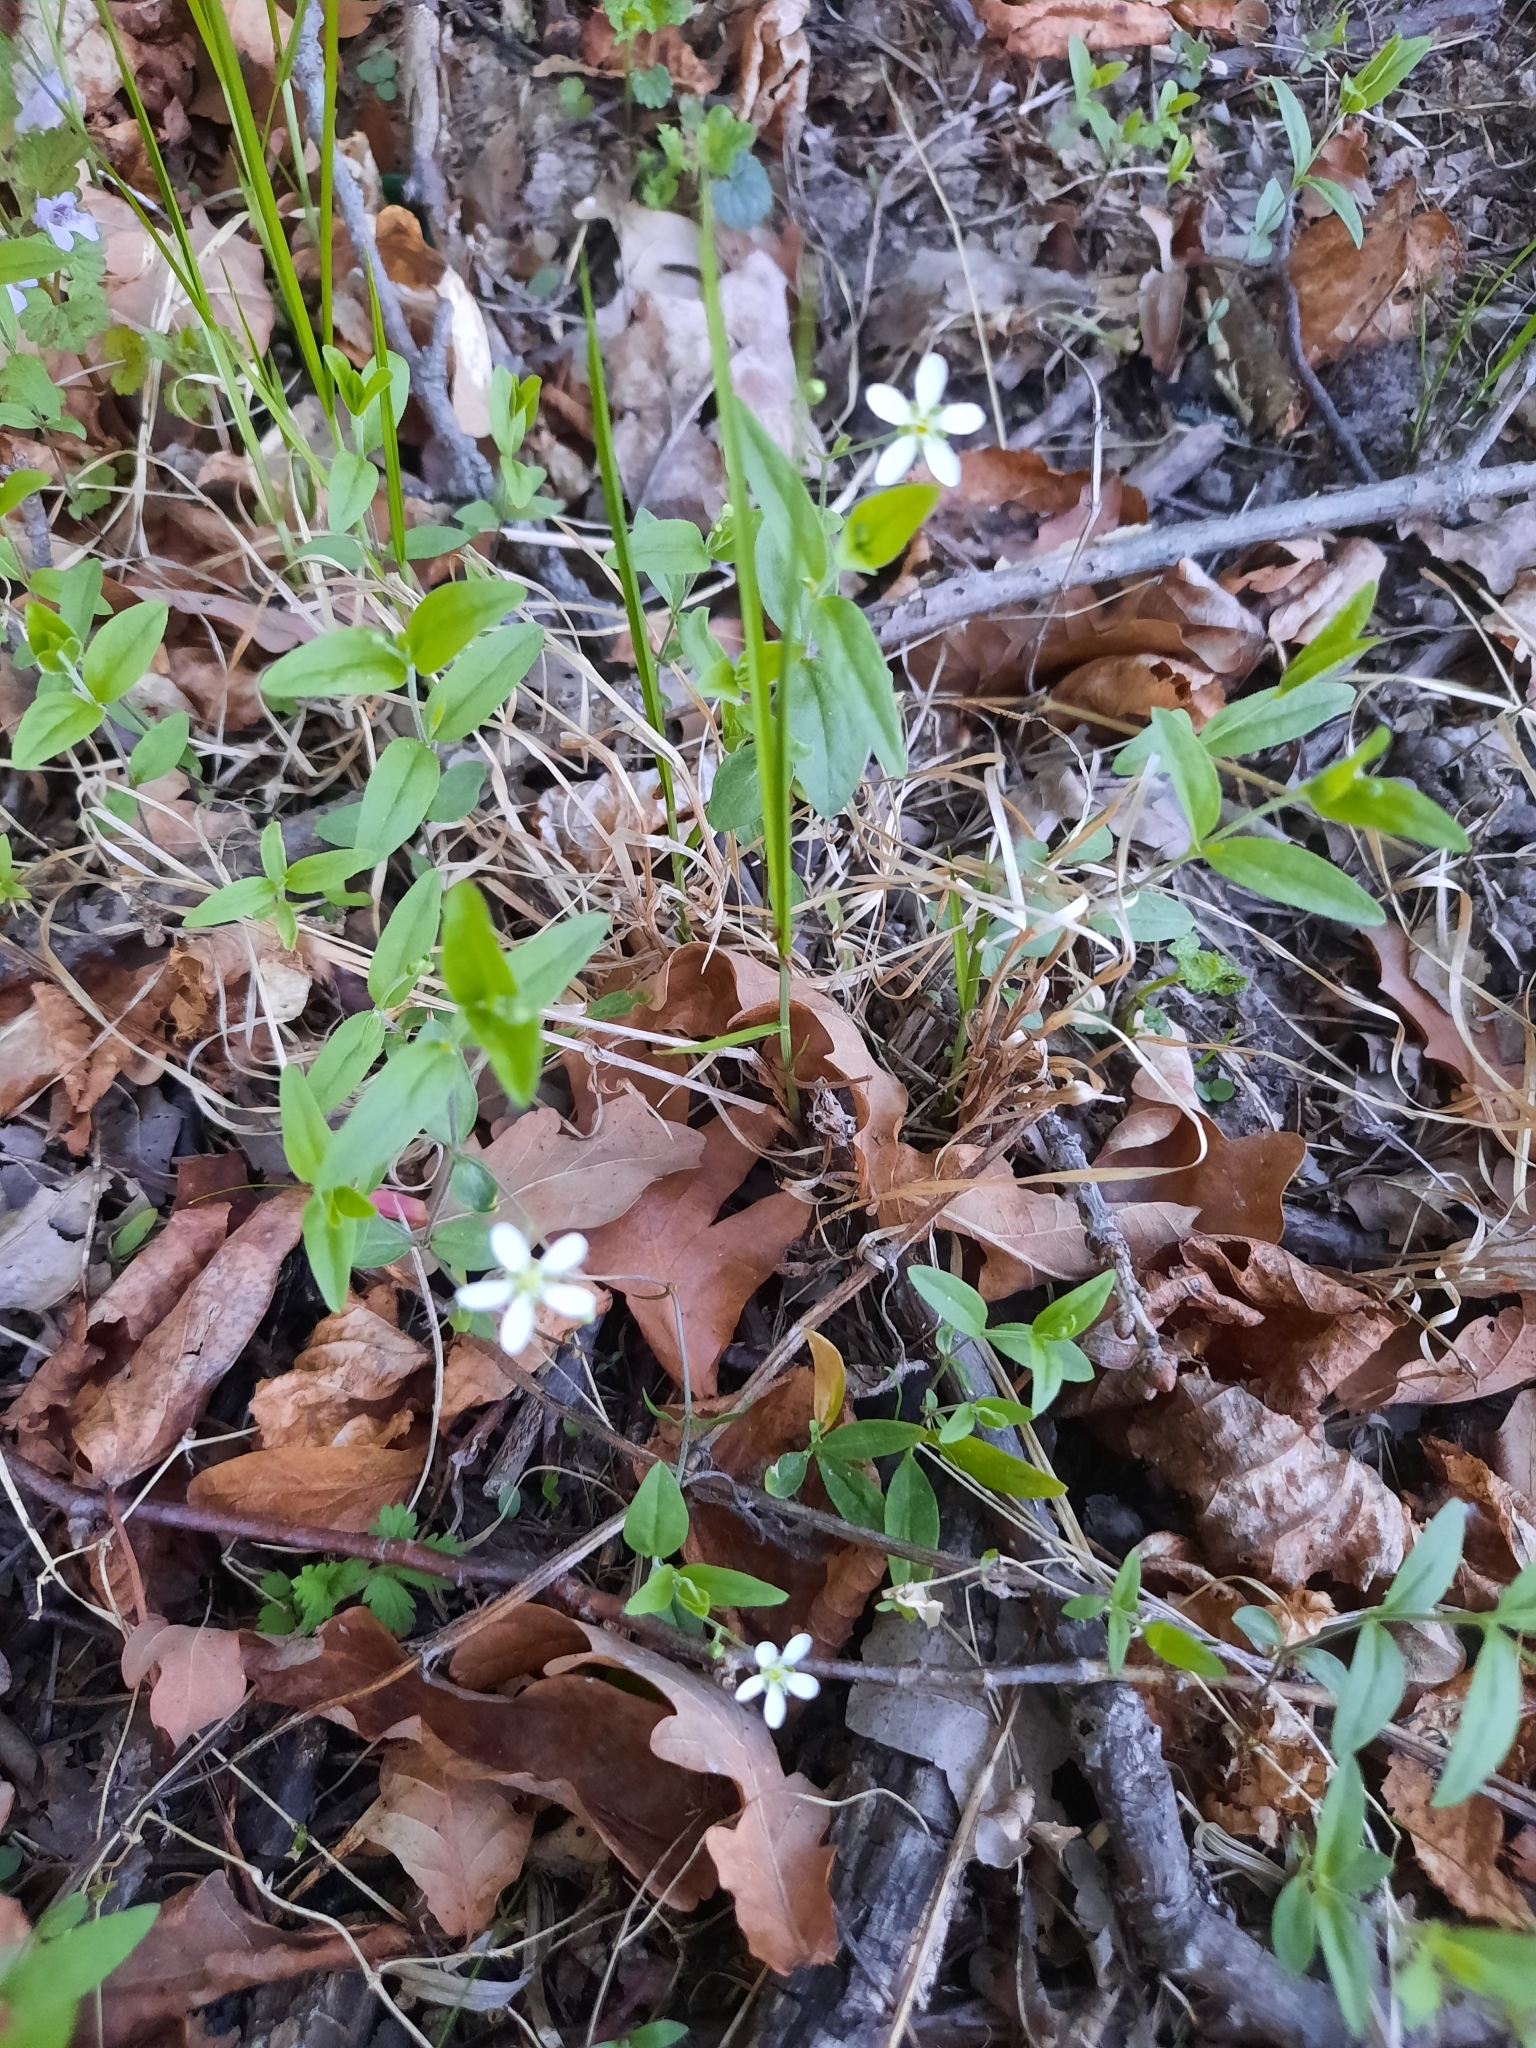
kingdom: Plantae
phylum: Tracheophyta
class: Magnoliopsida
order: Caryophyllales
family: Caryophyllaceae
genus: Moehringia
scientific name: Moehringia lateriflora
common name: Blunt-leaved sandwort
